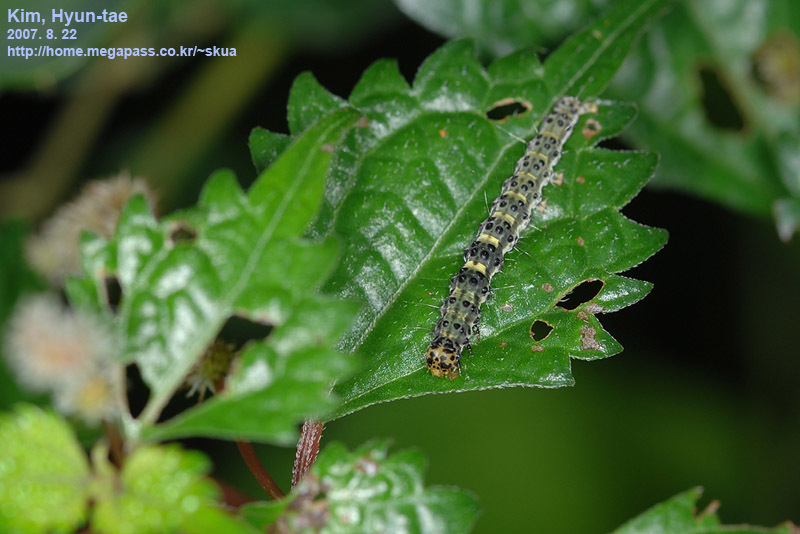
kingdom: Animalia
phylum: Arthropoda
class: Insecta
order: Lepidoptera
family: Erebidae
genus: Hypena
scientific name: Hypena amica
